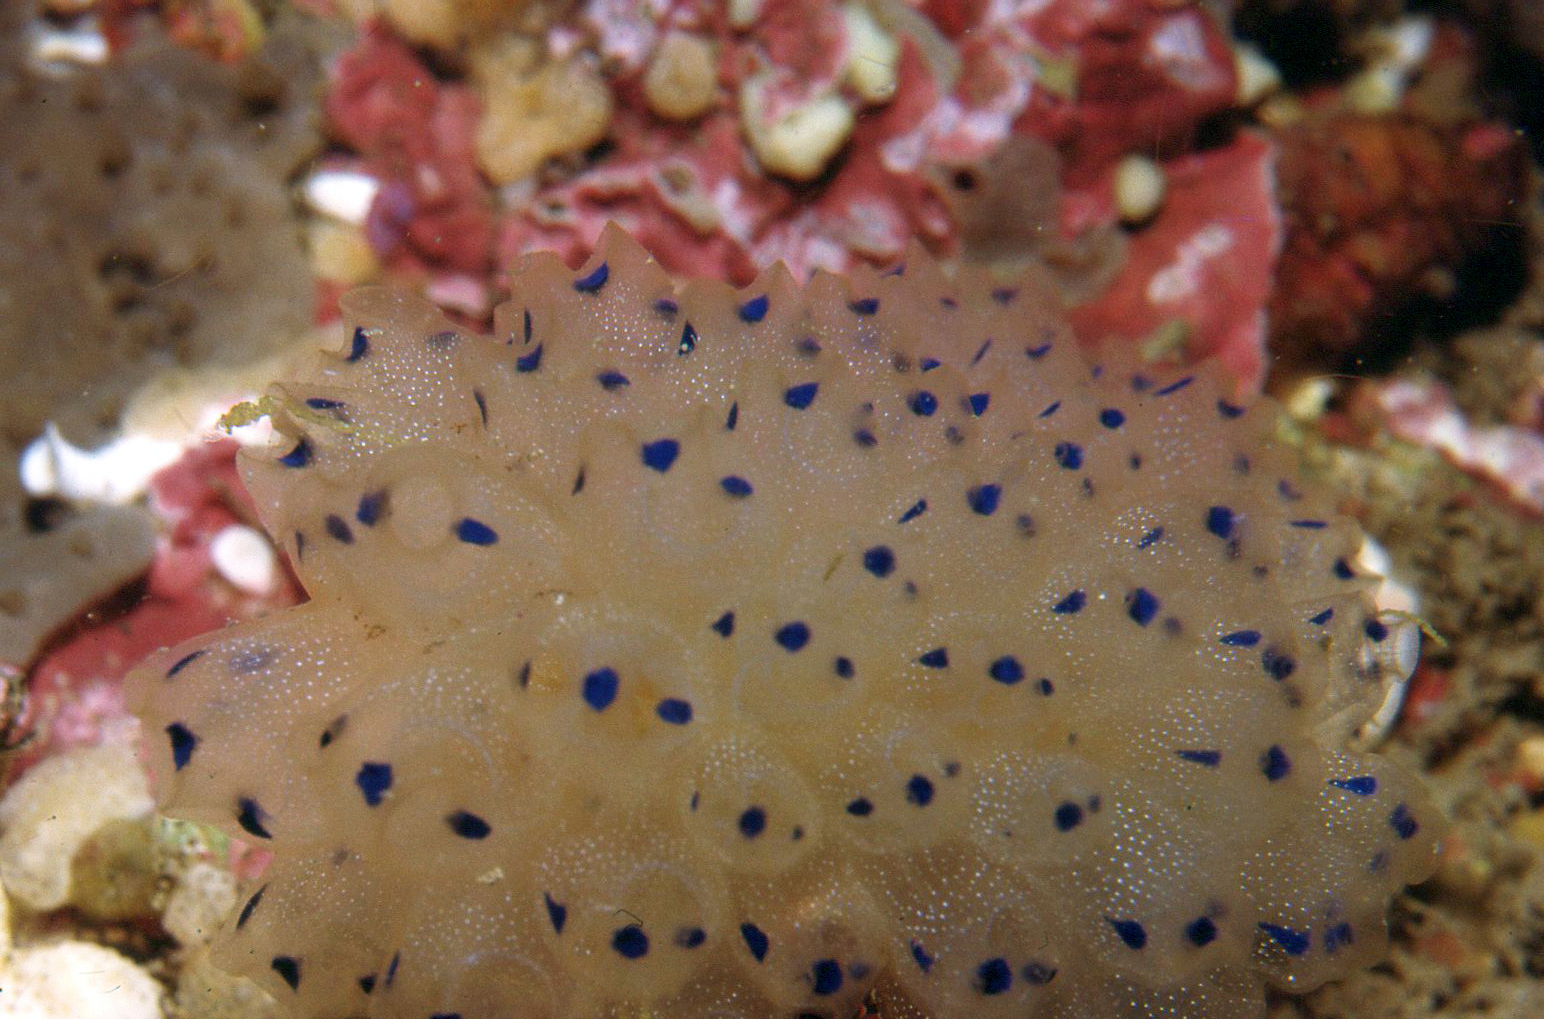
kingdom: Animalia
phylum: Chordata
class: Ascidiacea
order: Aplousobranchia
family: Clavelinidae
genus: Clavelina
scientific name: Clavelina australis
